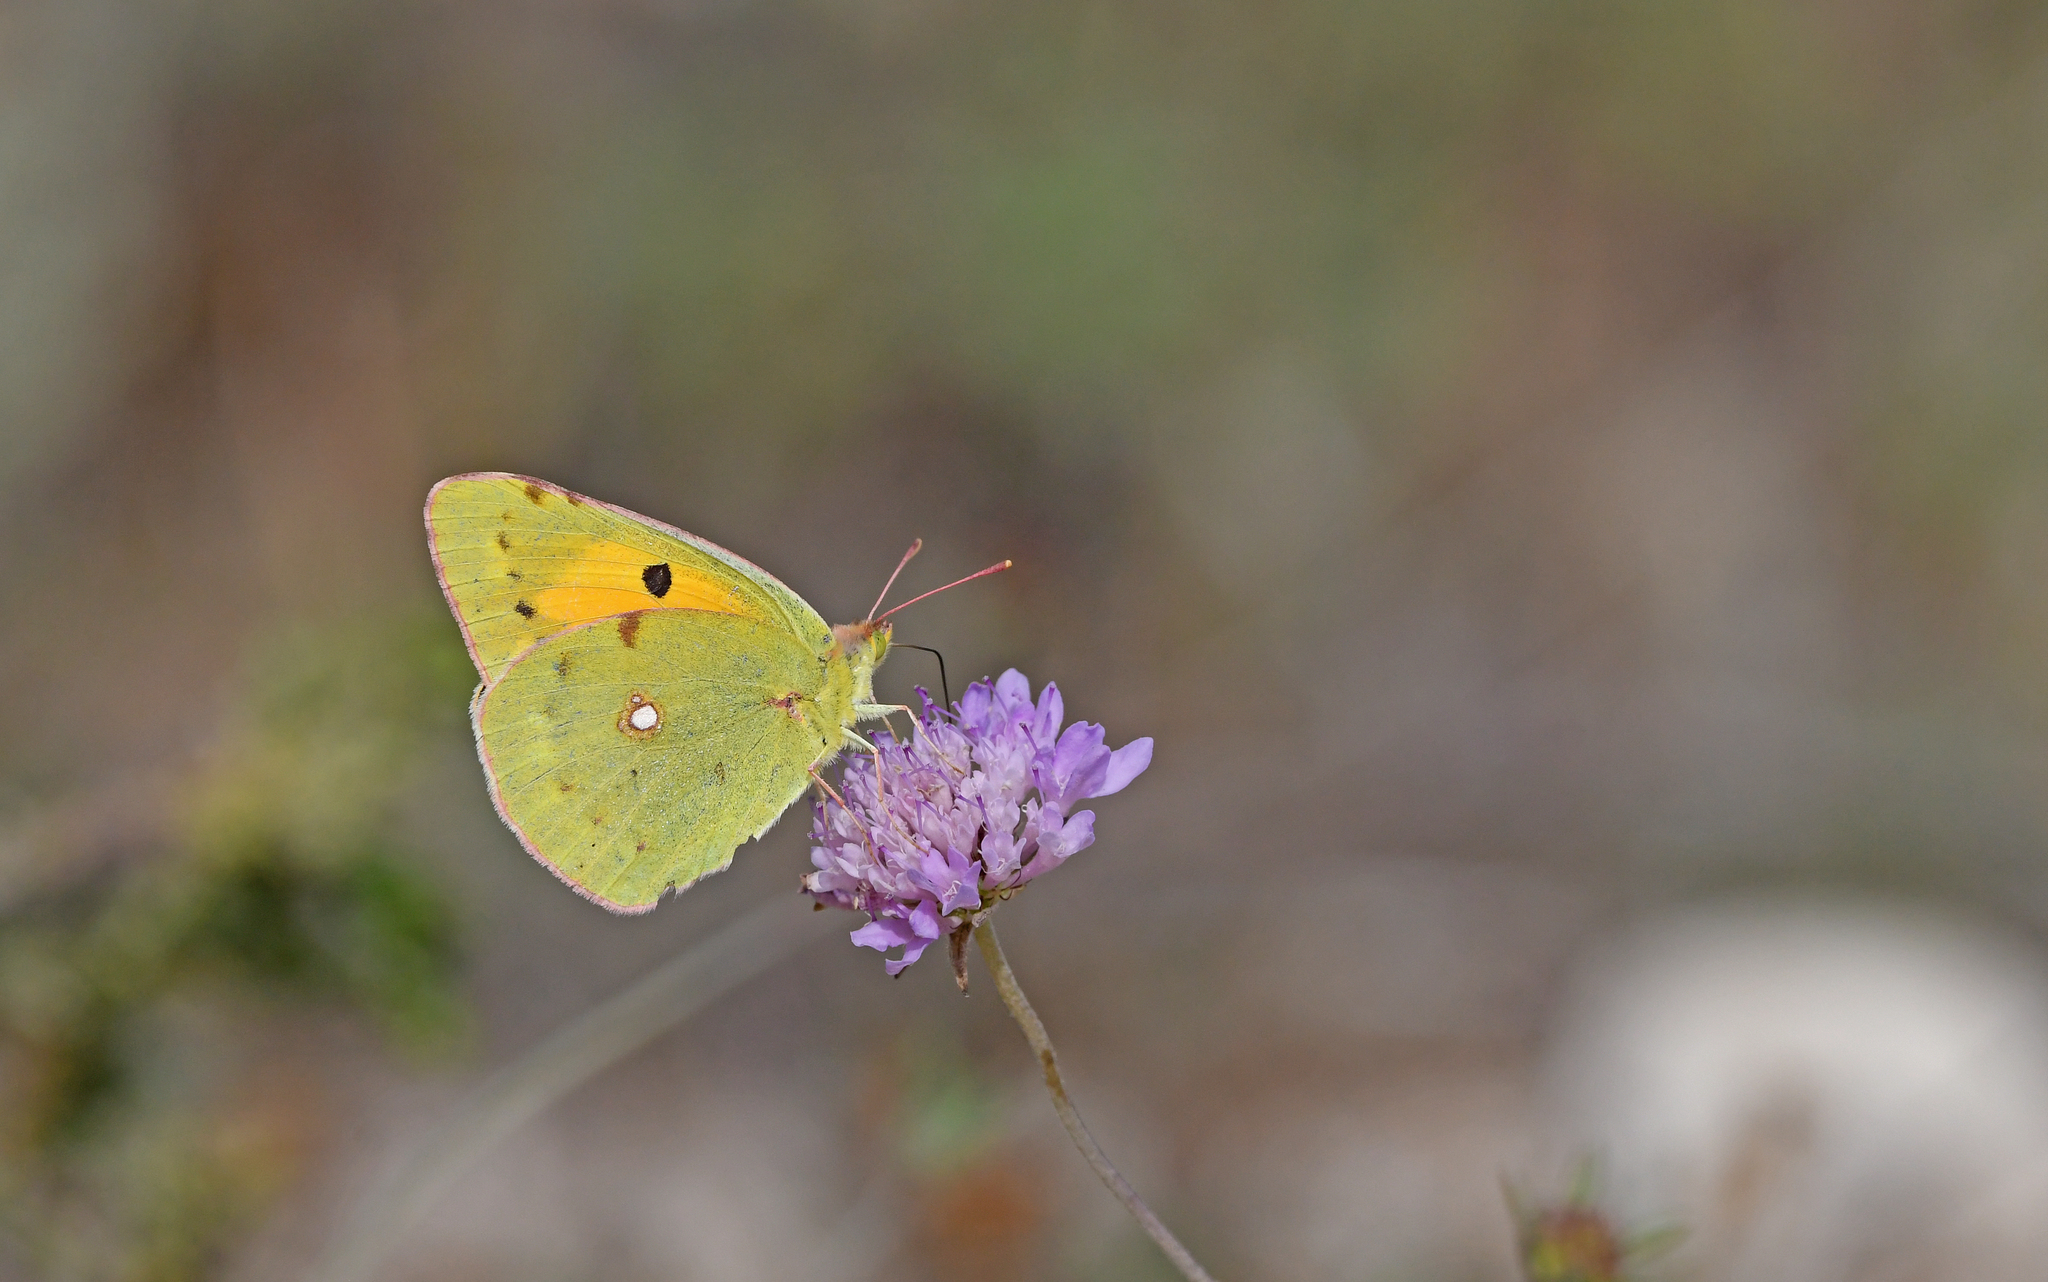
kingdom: Animalia
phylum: Arthropoda
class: Insecta
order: Lepidoptera
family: Pieridae
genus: Colias
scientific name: Colias croceus
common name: Clouded yellow
